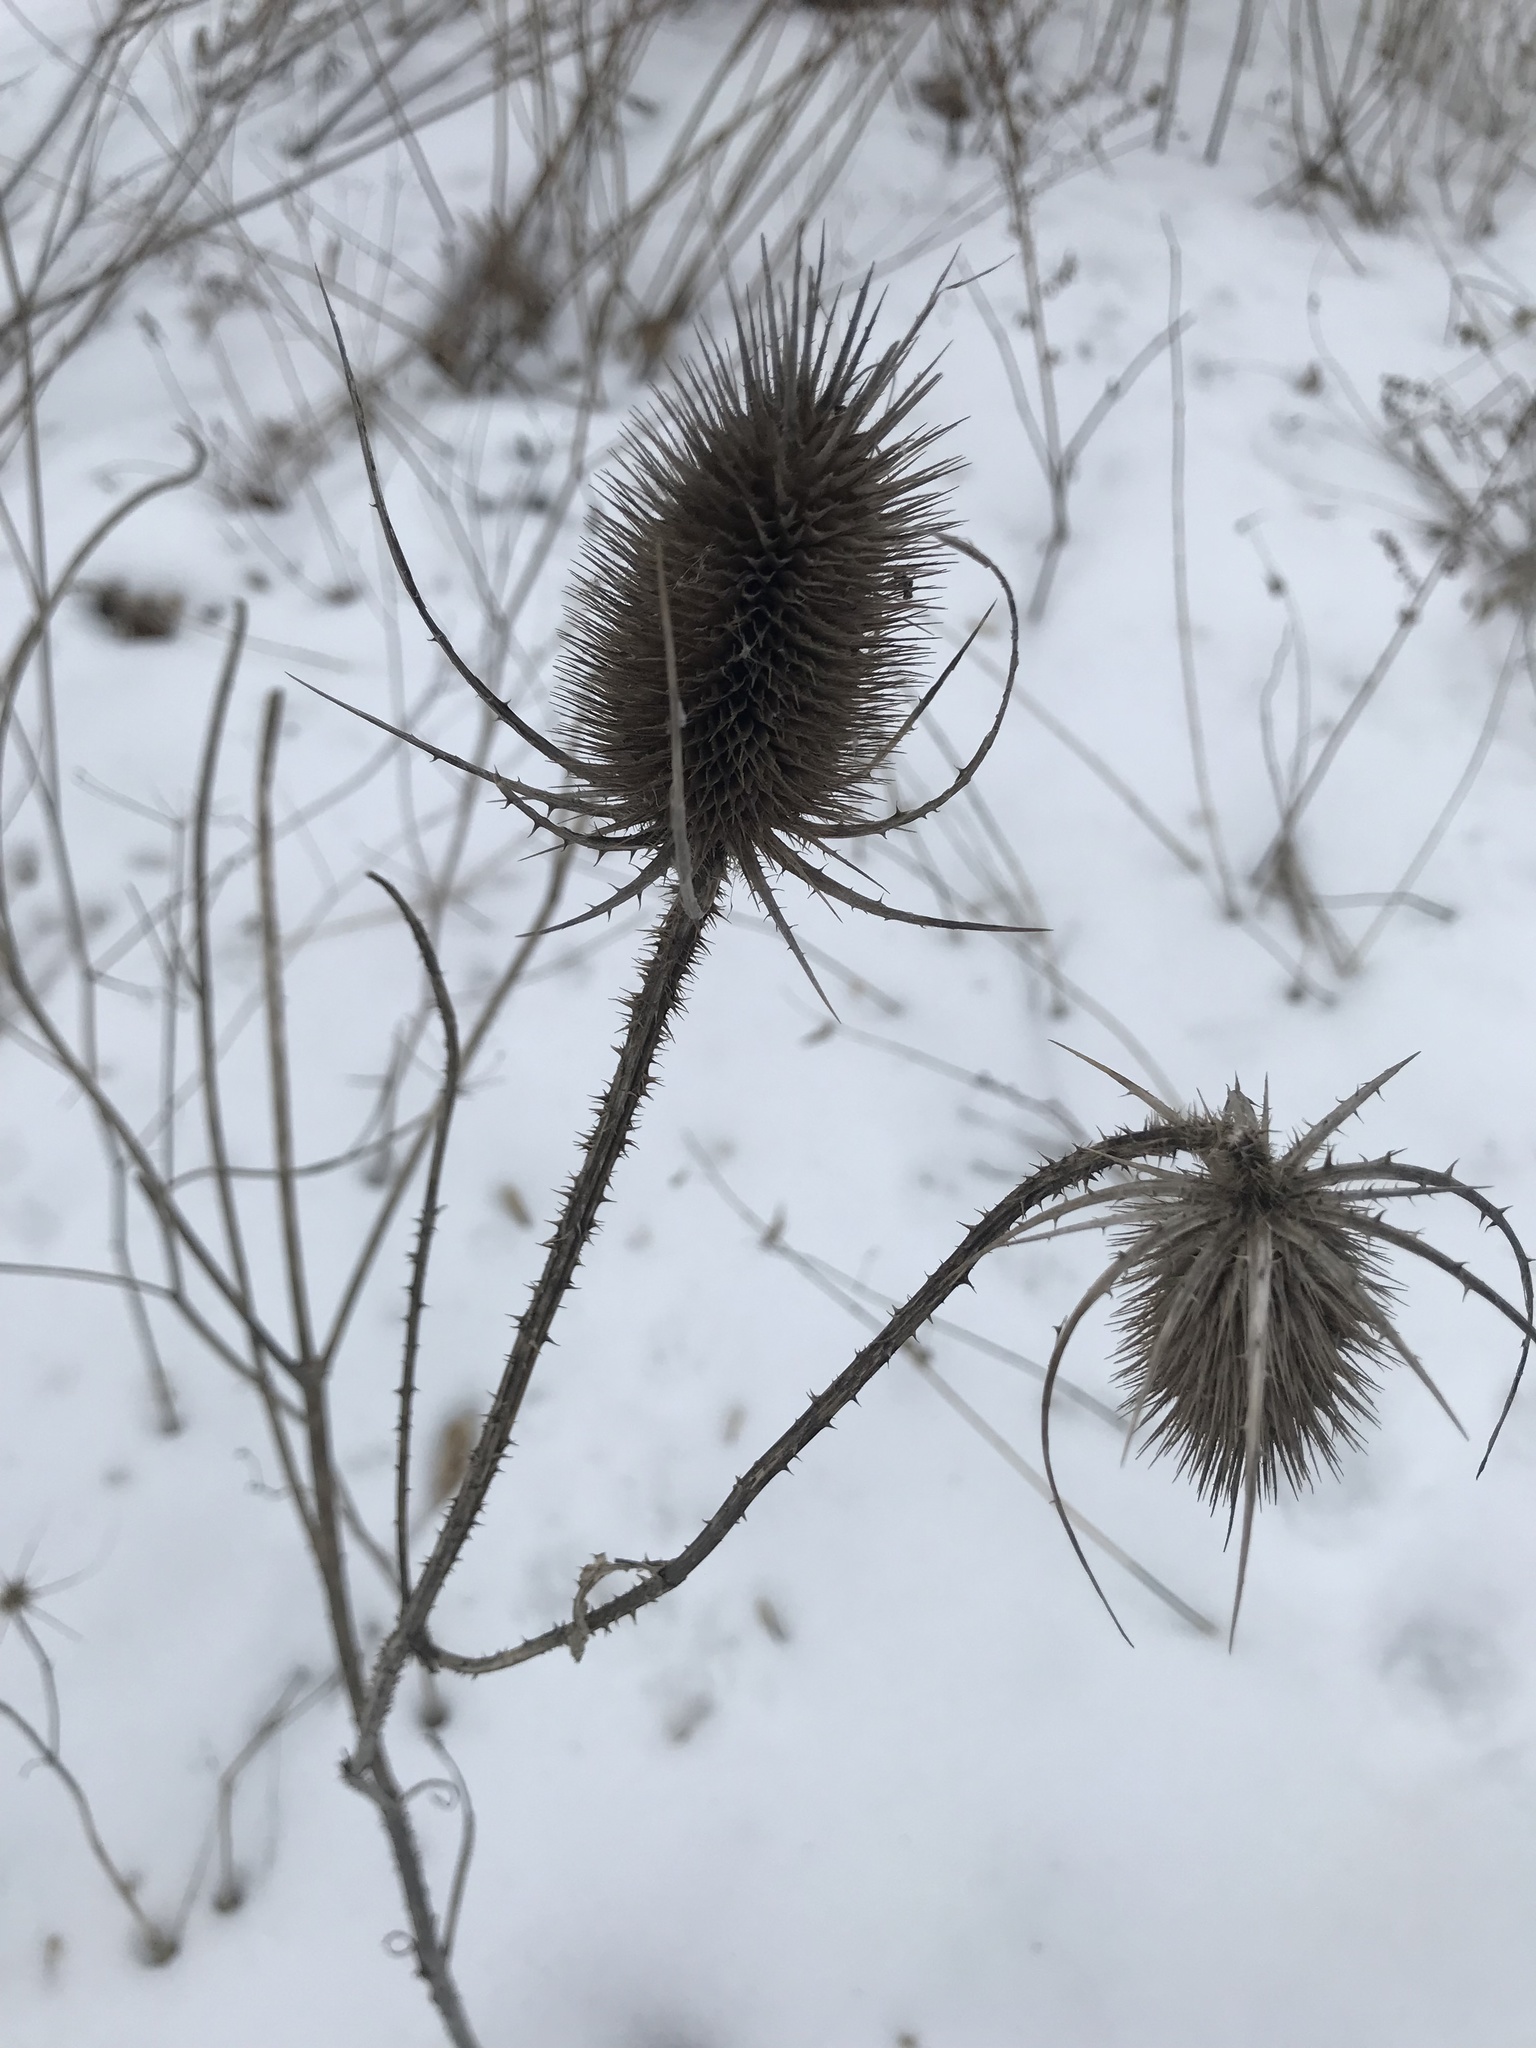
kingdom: Plantae
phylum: Tracheophyta
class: Magnoliopsida
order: Dipsacales
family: Caprifoliaceae
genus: Dipsacus
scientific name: Dipsacus fullonum
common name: Teasel
